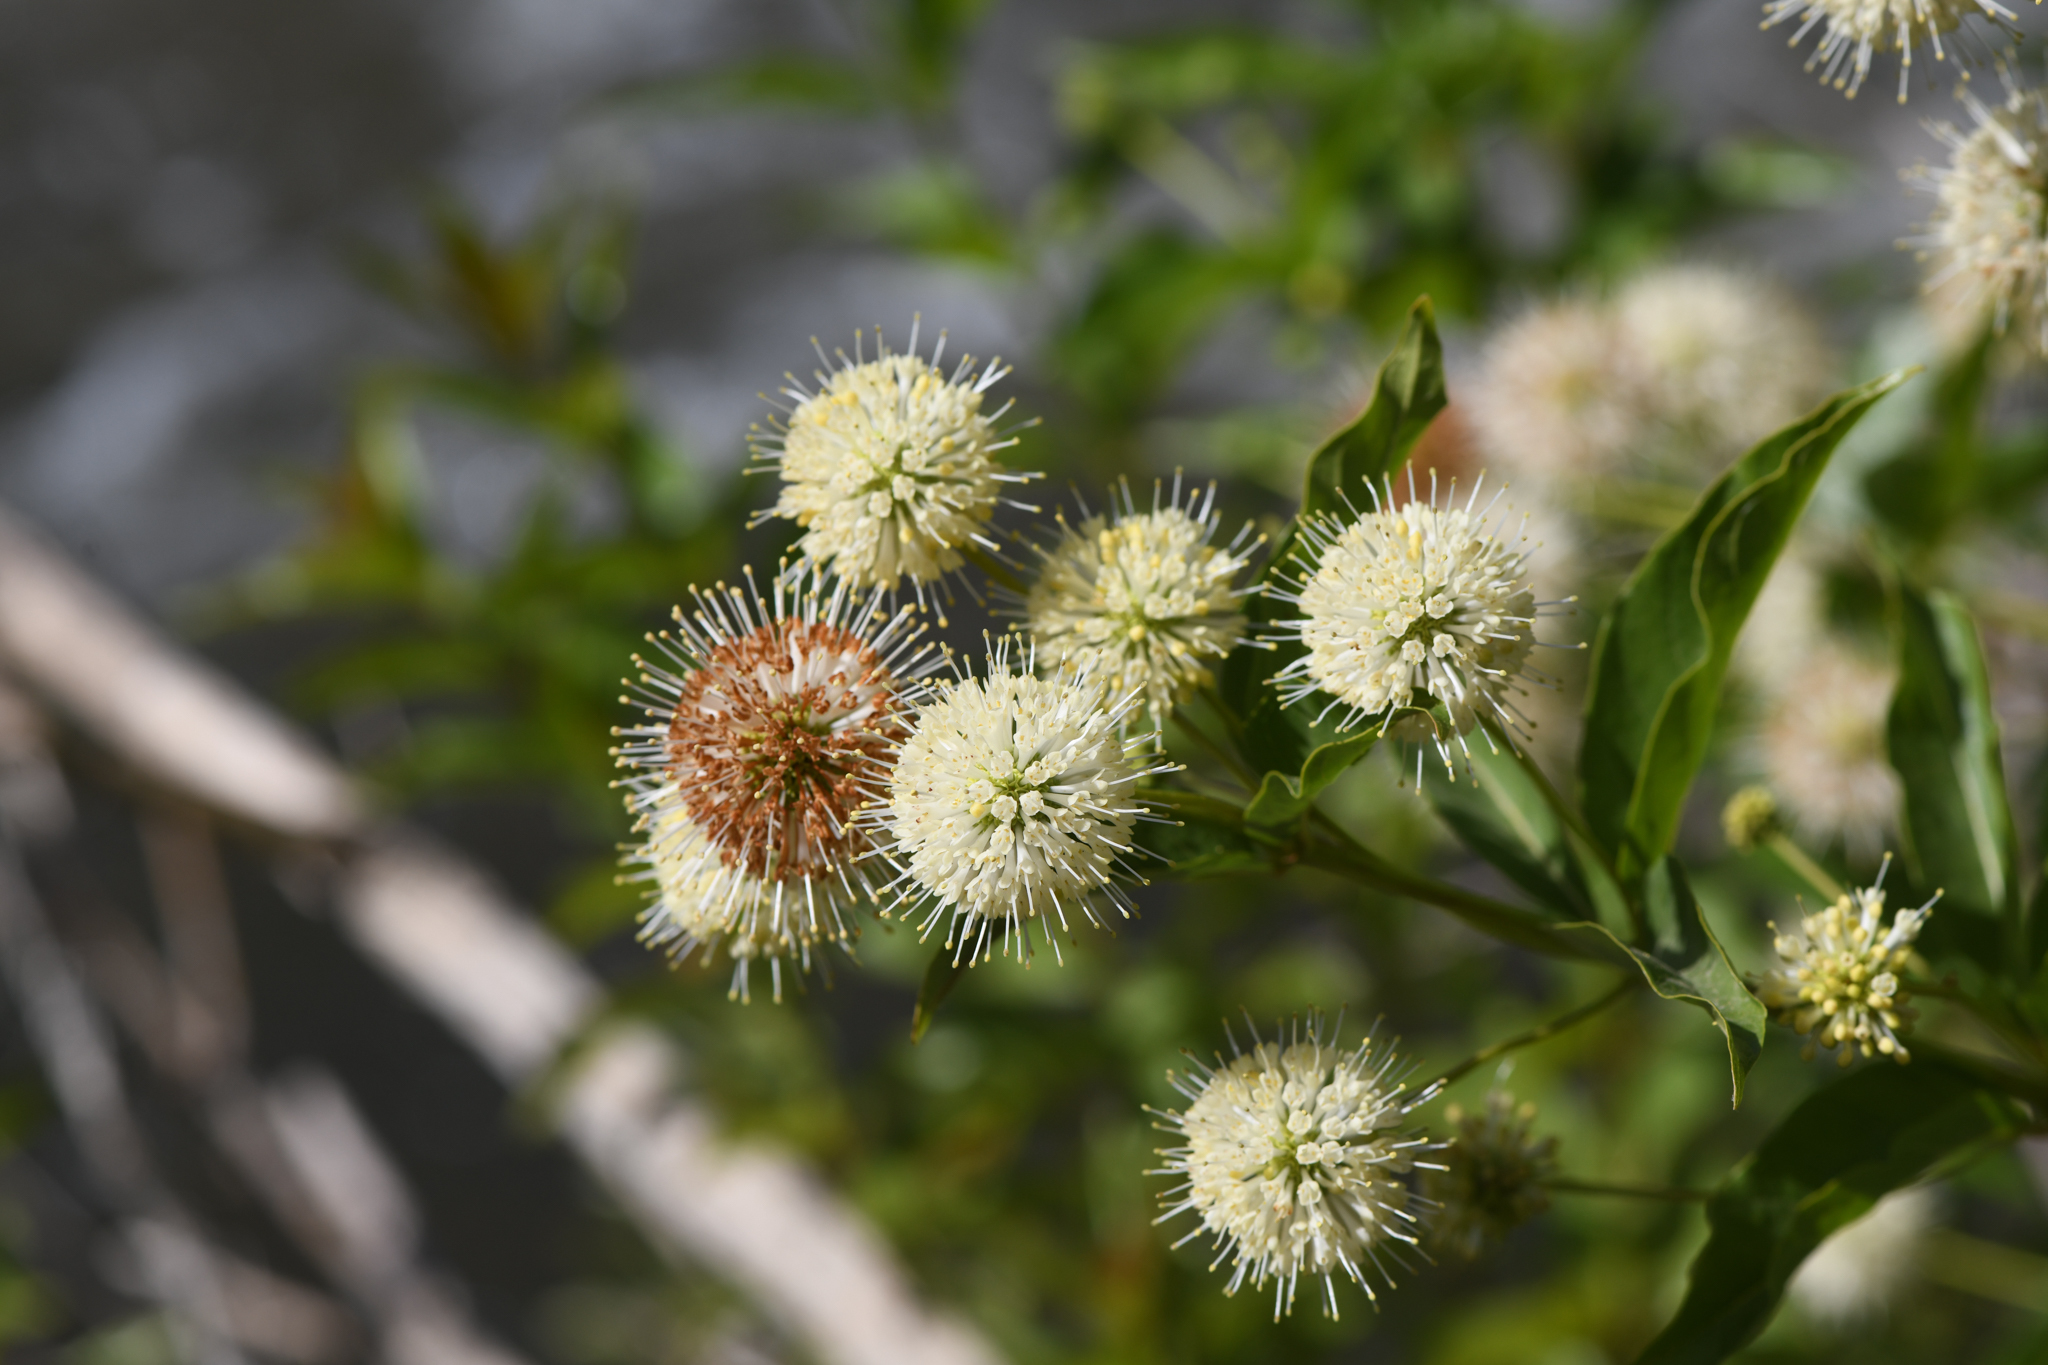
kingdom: Plantae
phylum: Tracheophyta
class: Magnoliopsida
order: Gentianales
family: Rubiaceae
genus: Cephalanthus
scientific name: Cephalanthus occidentalis
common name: Button-willow
